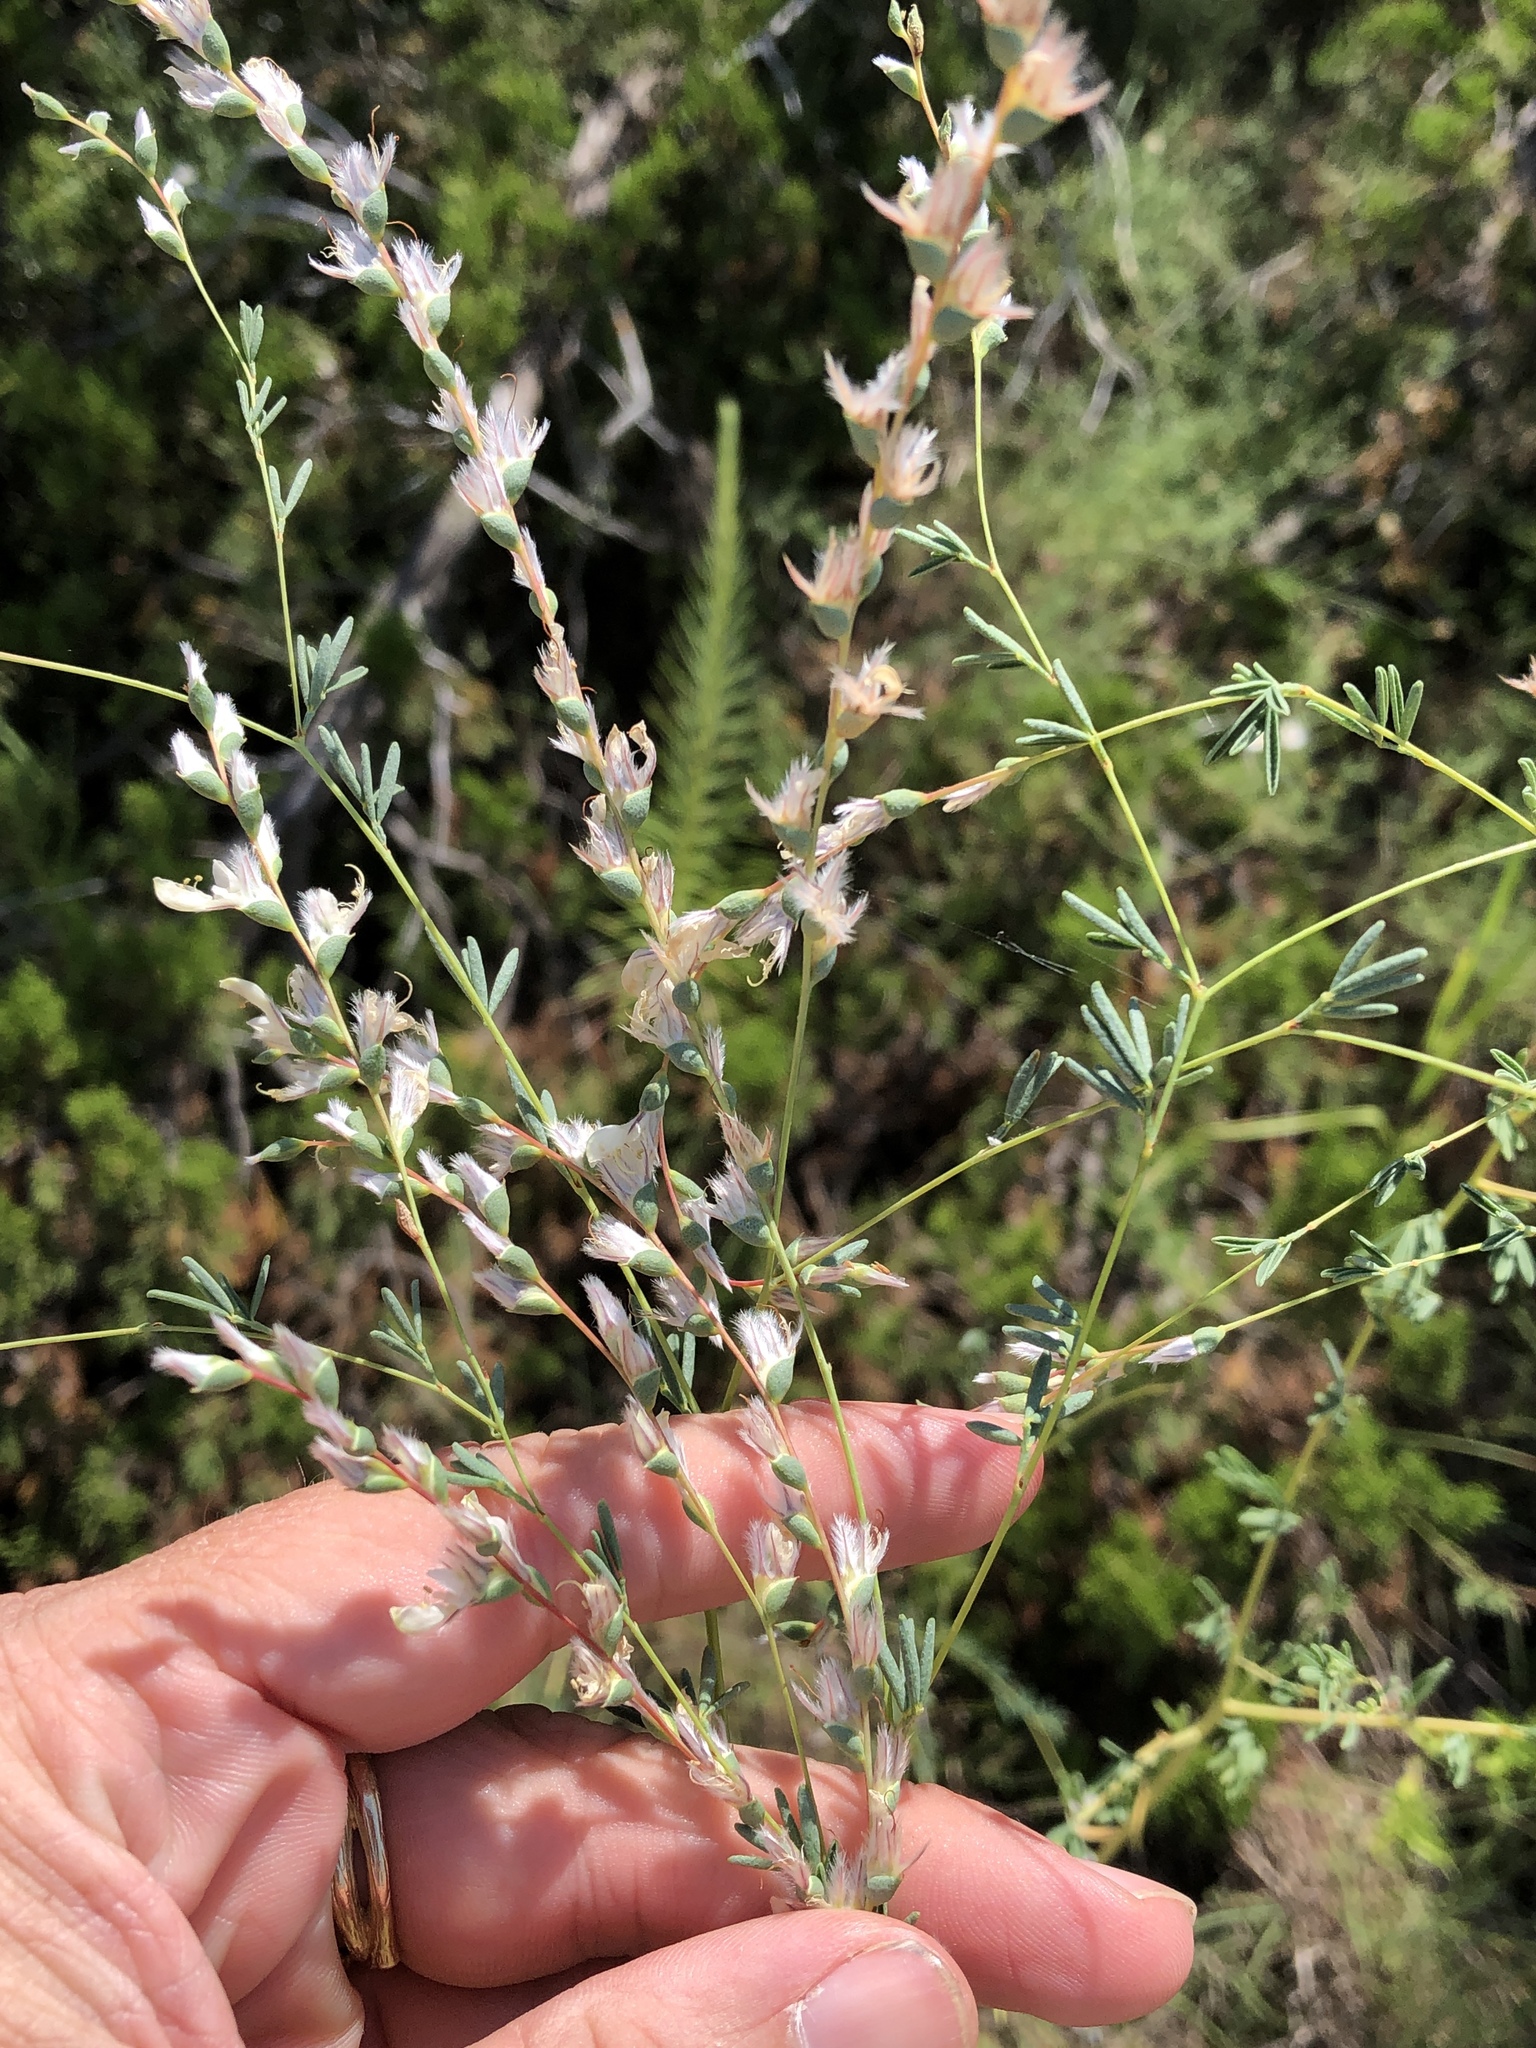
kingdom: Plantae
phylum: Tracheophyta
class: Magnoliopsida
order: Fabales
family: Fabaceae
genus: Dalea
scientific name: Dalea enneandra
